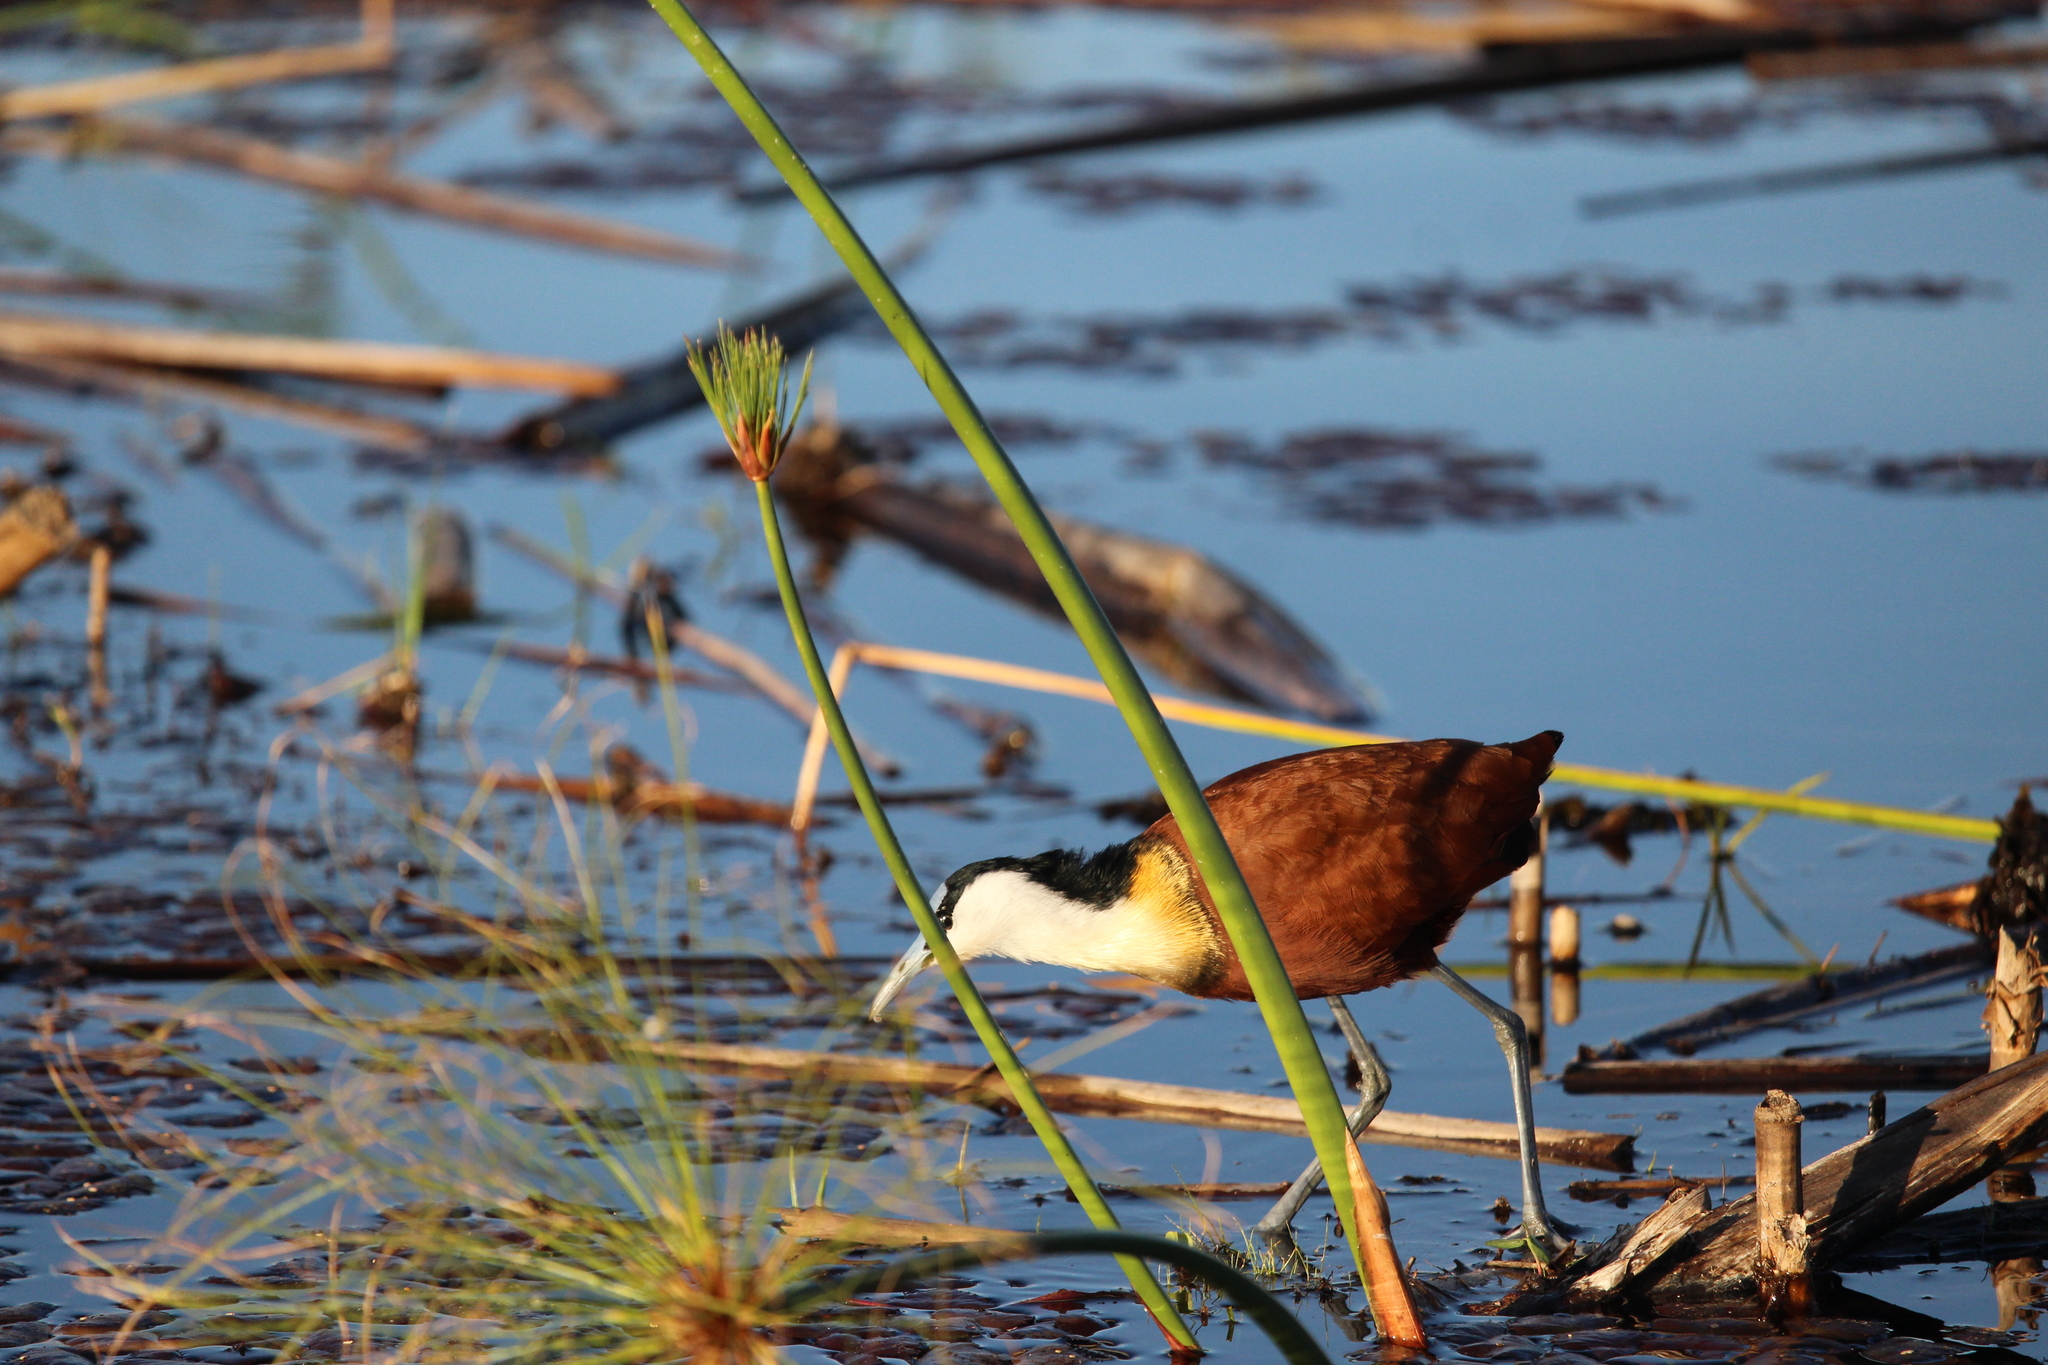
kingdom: Animalia
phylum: Chordata
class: Aves
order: Charadriiformes
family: Jacanidae
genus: Actophilornis
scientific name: Actophilornis africanus
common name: African jacana
